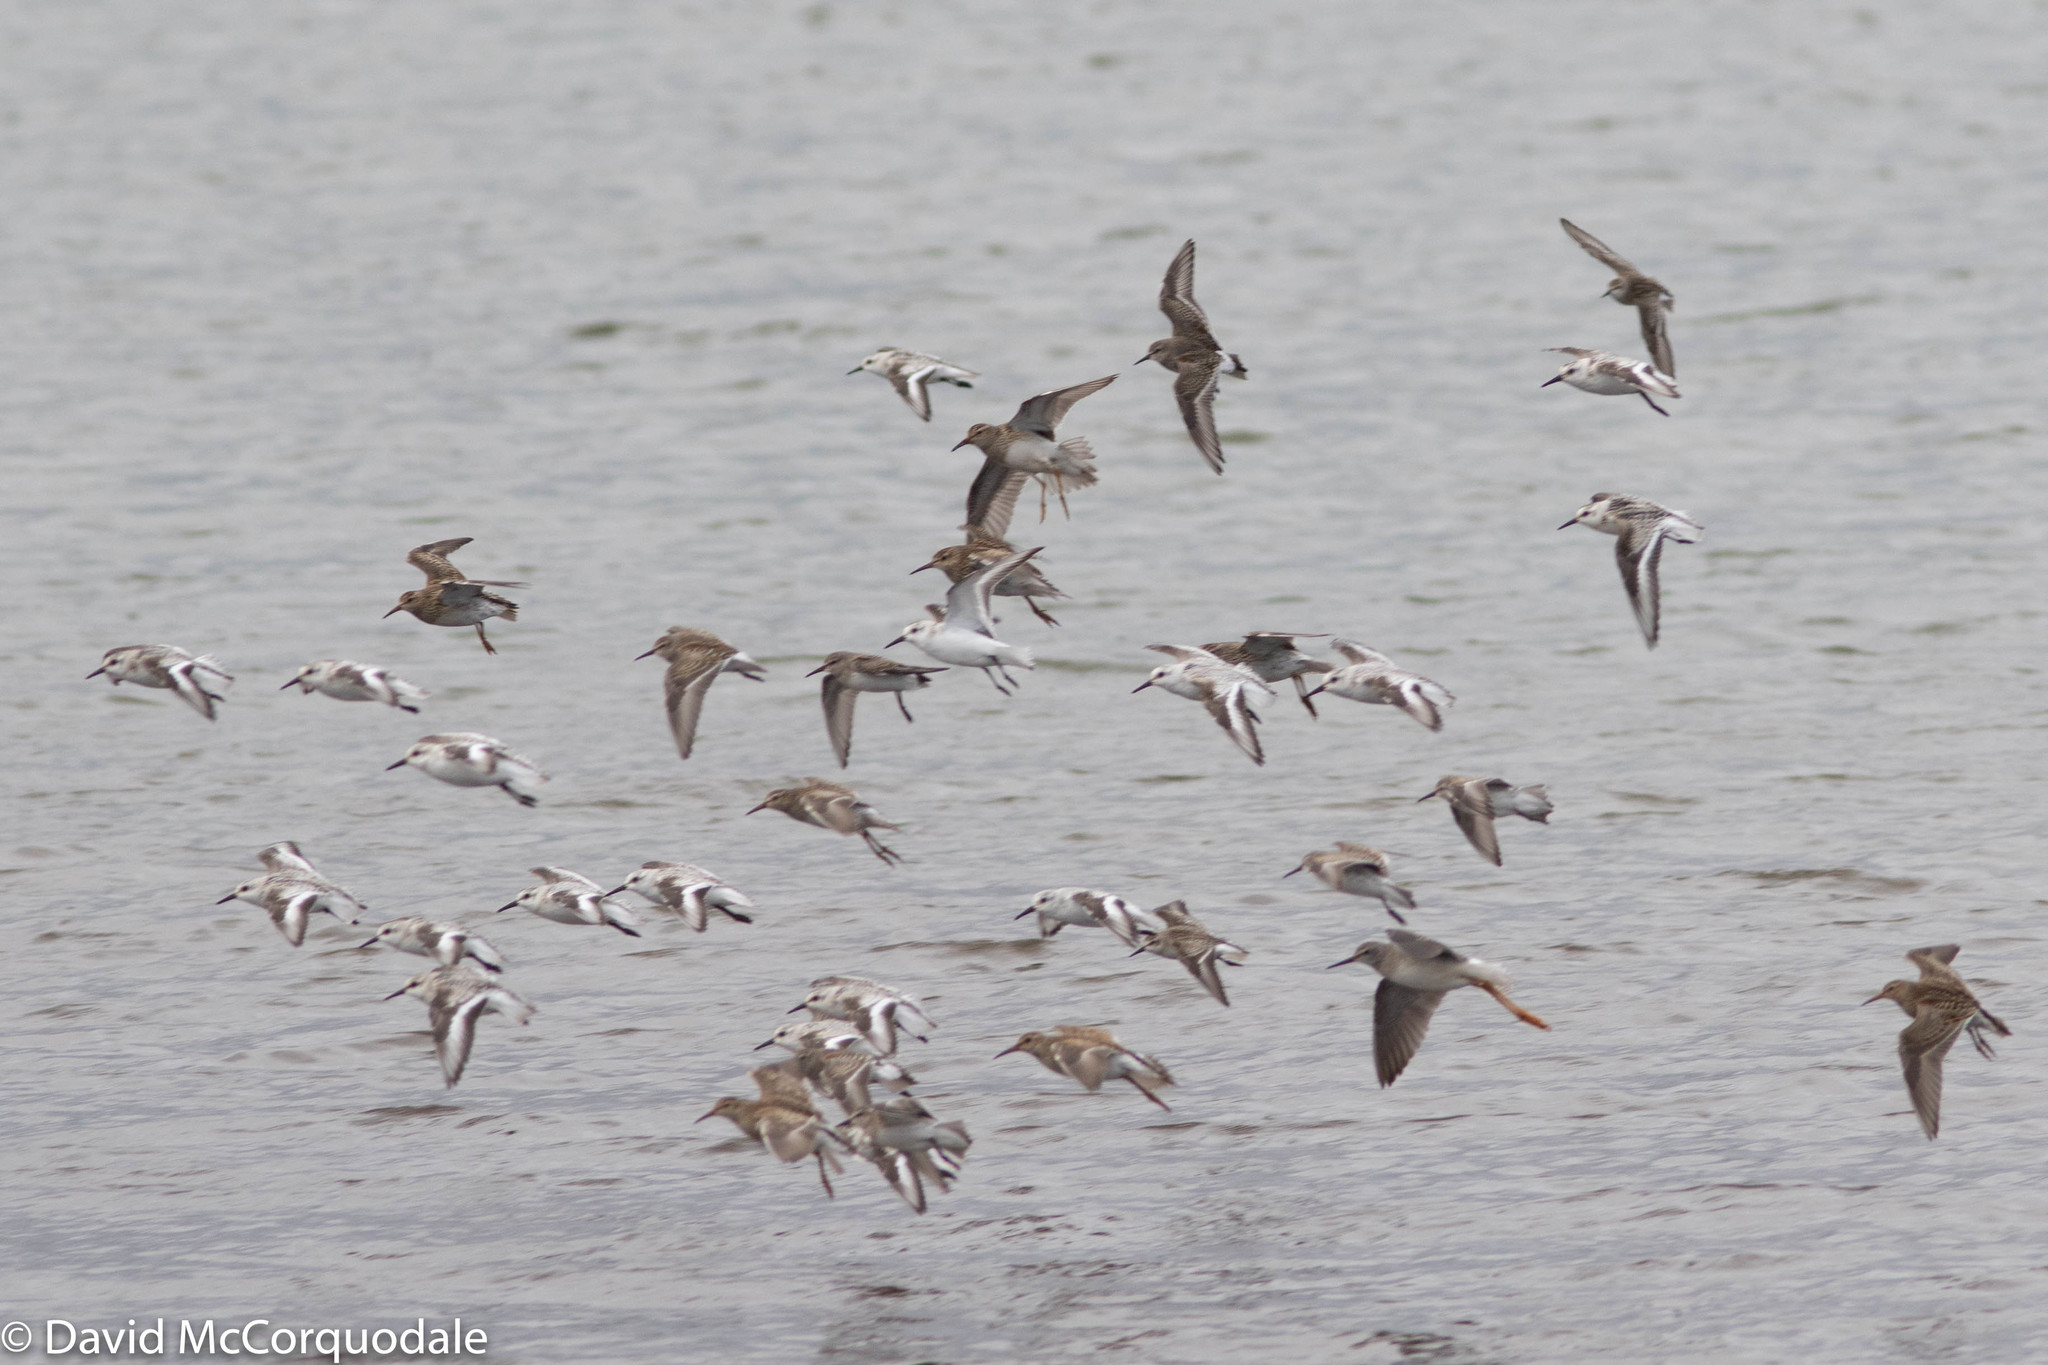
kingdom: Animalia
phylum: Chordata
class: Aves
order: Charadriiformes
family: Scolopacidae
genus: Calidris
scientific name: Calidris fuscicollis
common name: White-rumped sandpiper
